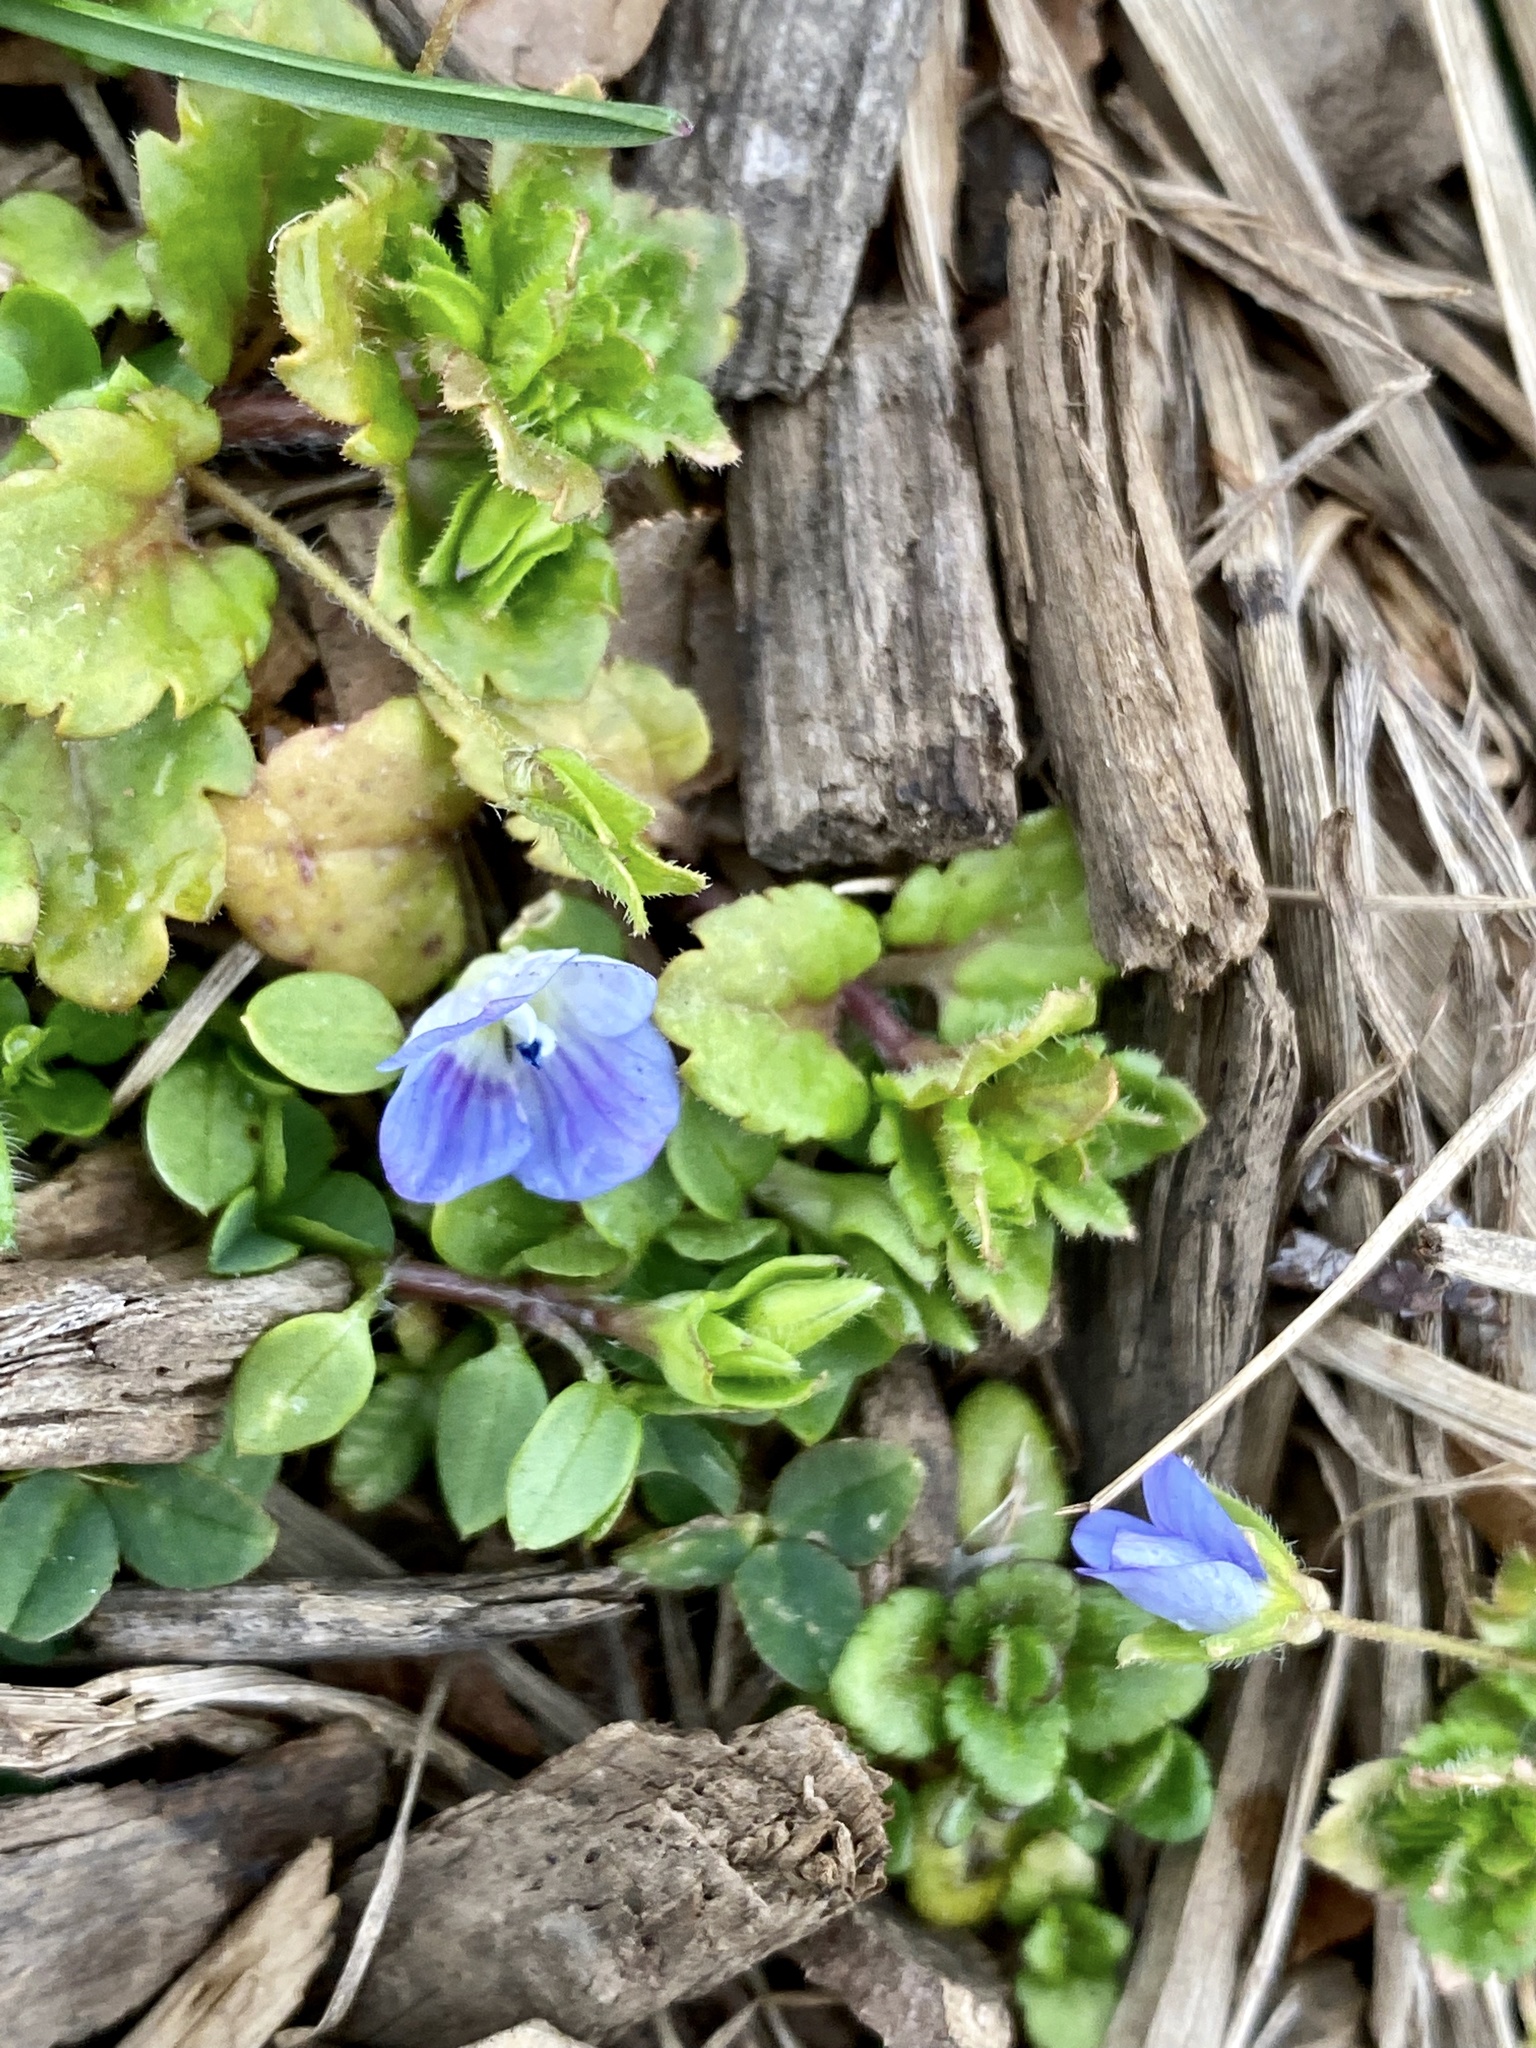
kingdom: Plantae
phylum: Tracheophyta
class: Magnoliopsida
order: Lamiales
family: Plantaginaceae
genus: Veronica
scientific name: Veronica persica
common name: Common field-speedwell
